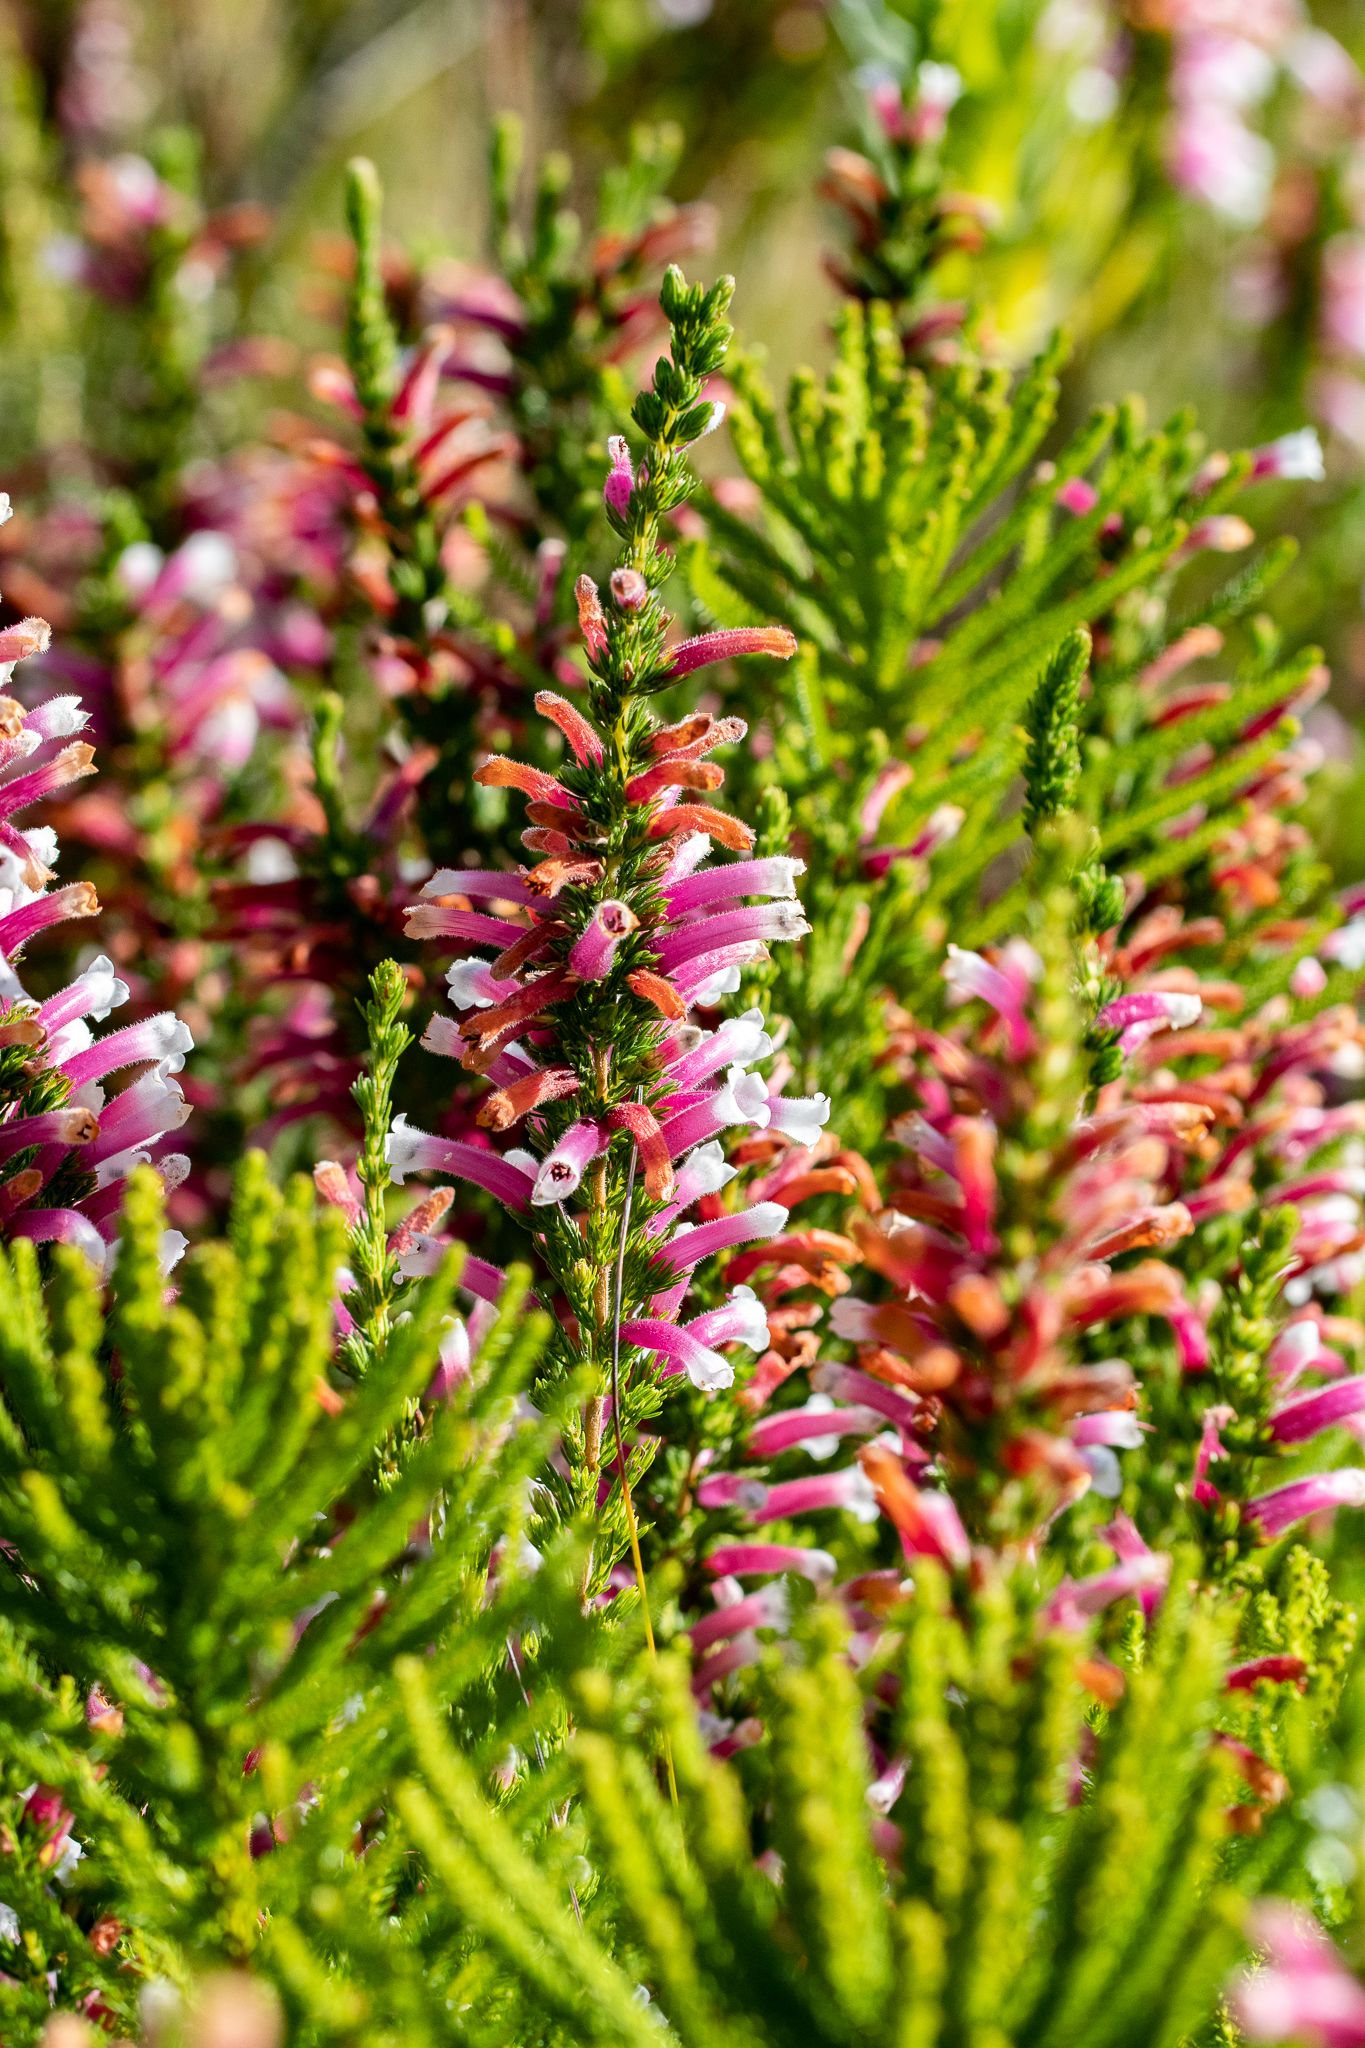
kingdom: Plantae
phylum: Tracheophyta
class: Magnoliopsida
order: Ericales
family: Ericaceae
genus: Erica
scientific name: Erica macowanii
